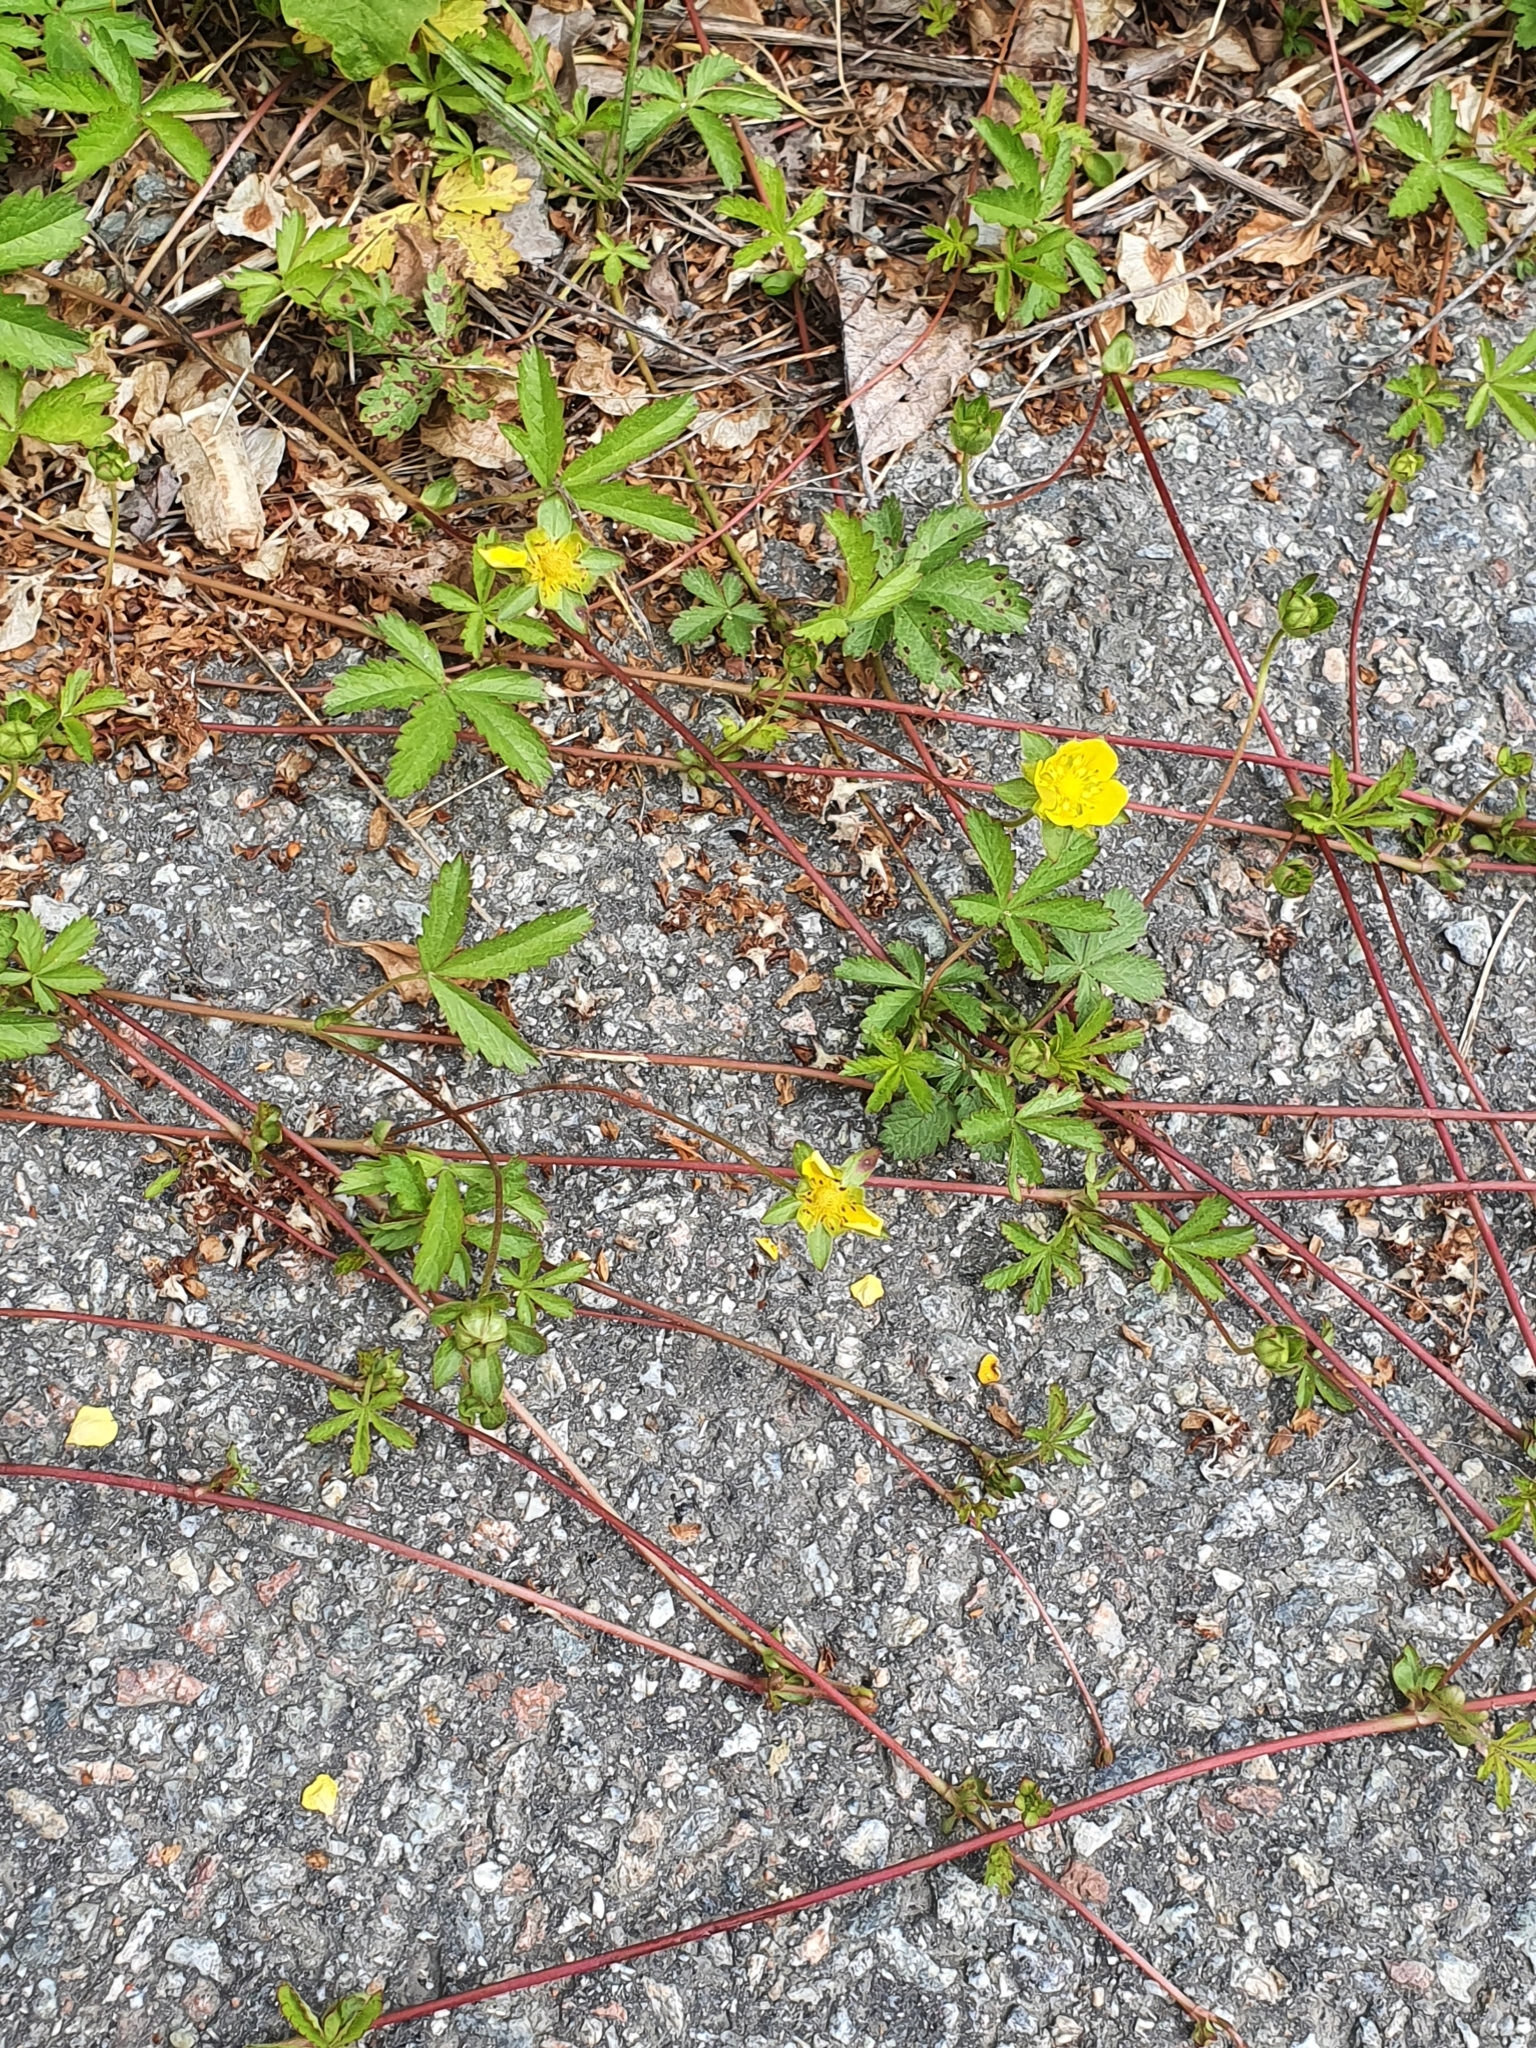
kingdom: Plantae
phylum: Tracheophyta
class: Magnoliopsida
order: Rosales
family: Rosaceae
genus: Potentilla
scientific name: Potentilla reptans
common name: Creeping cinquefoil
